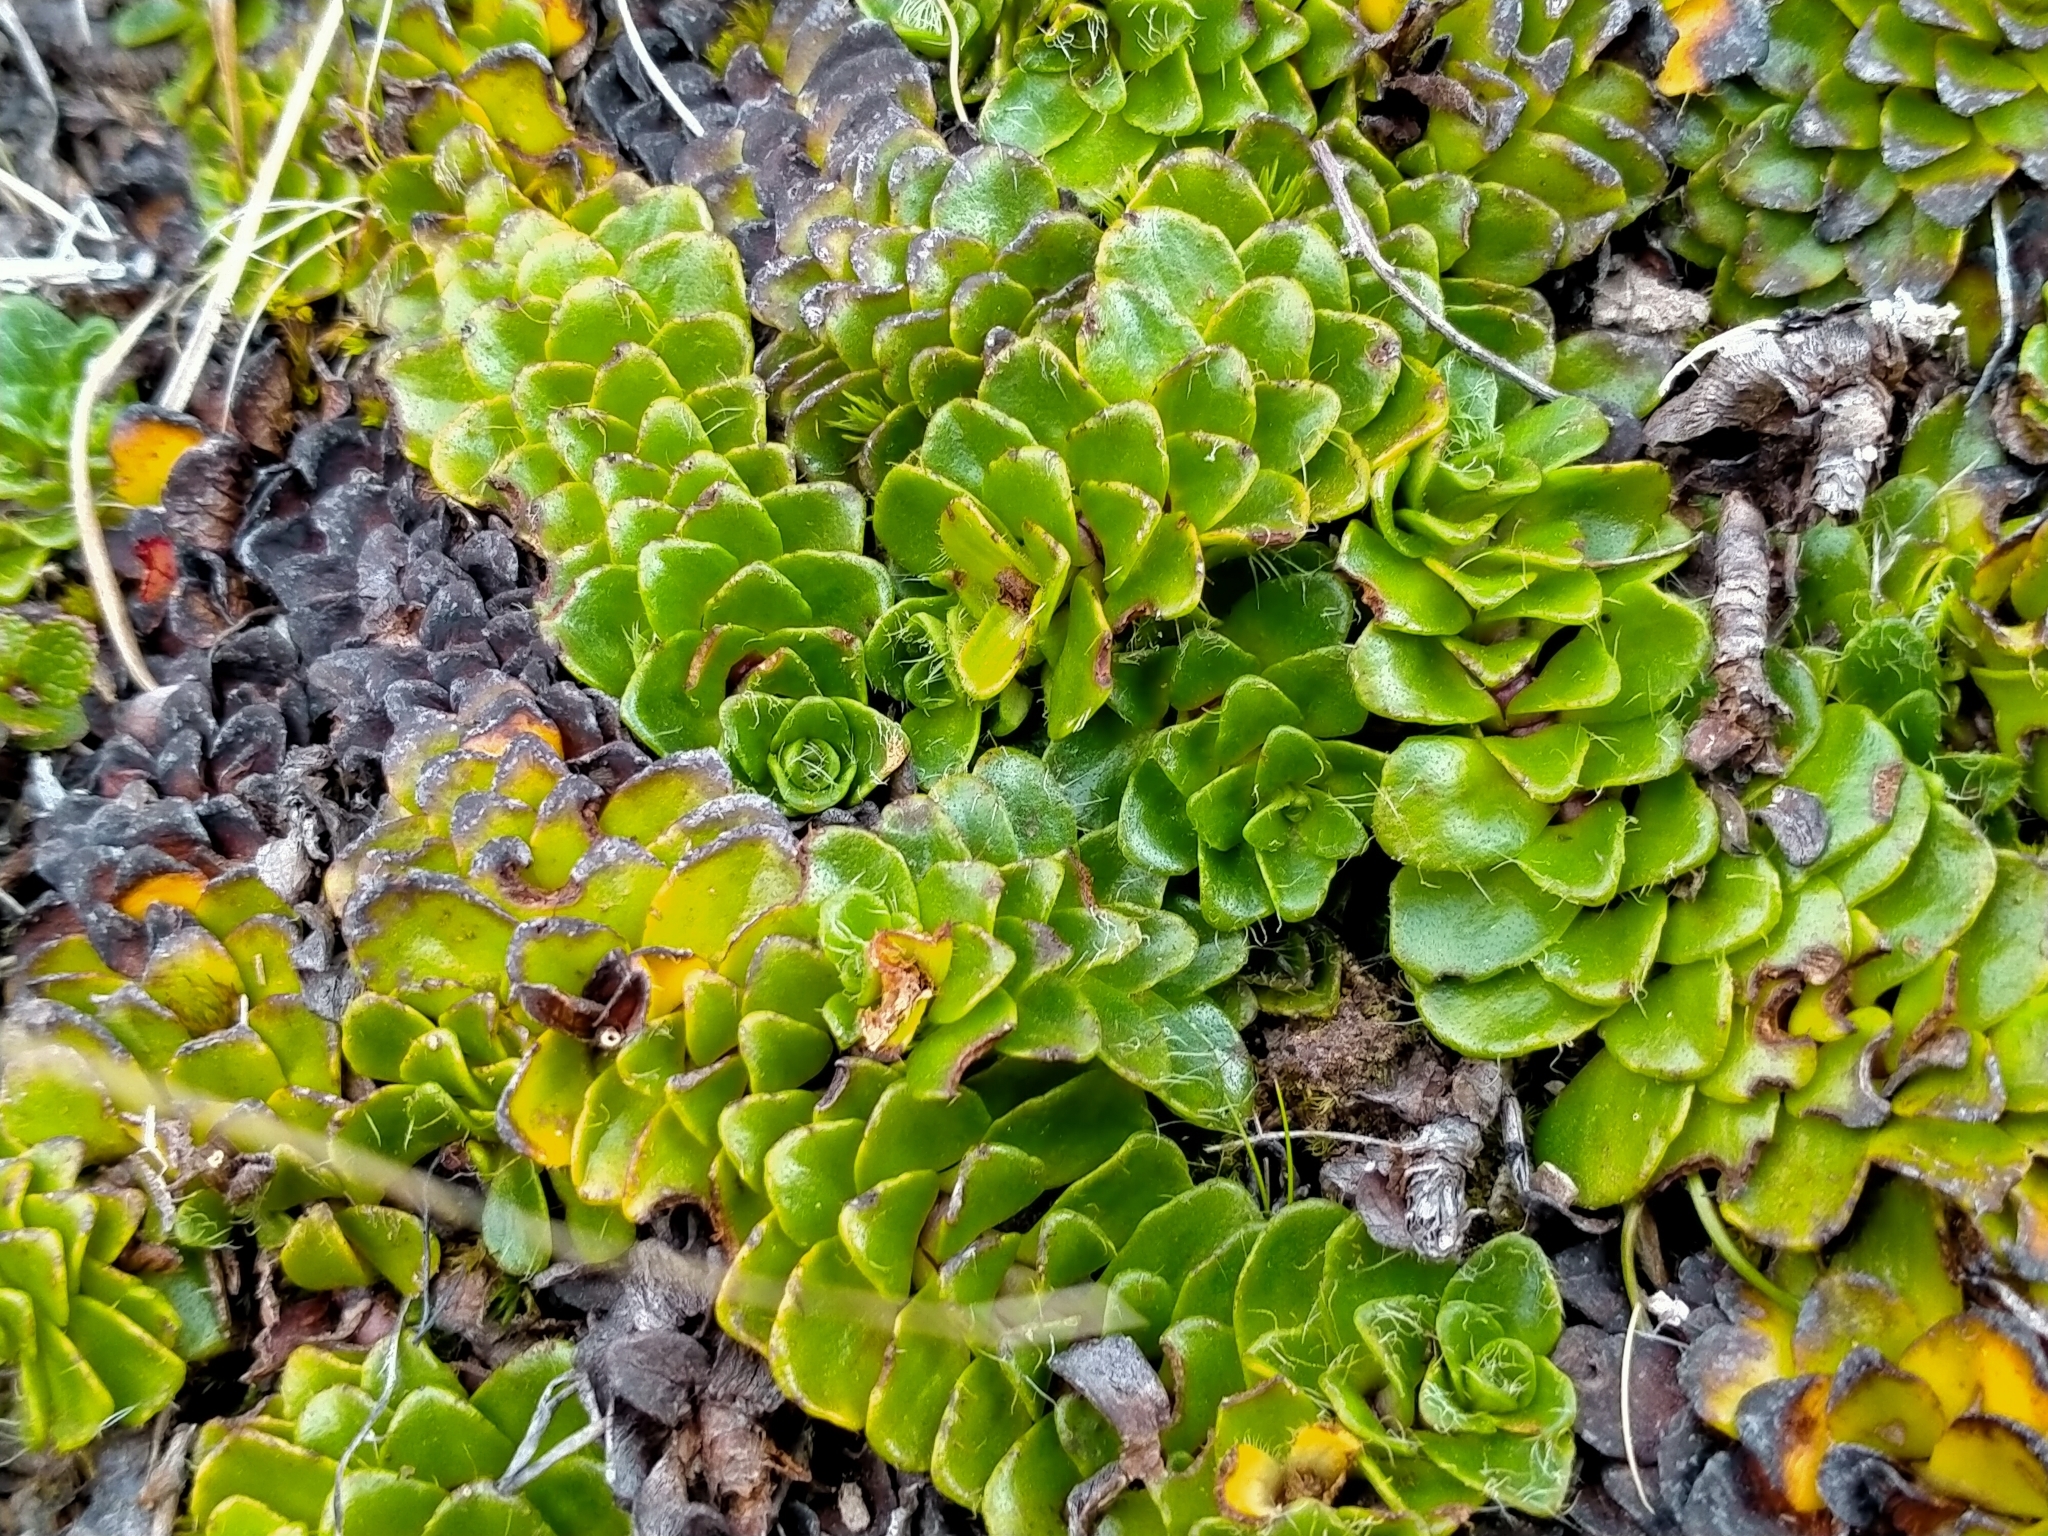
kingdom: Plantae
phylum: Tracheophyta
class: Magnoliopsida
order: Lamiales
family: Plantaginaceae
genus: Ourisia
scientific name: Ourisia glandulosa
